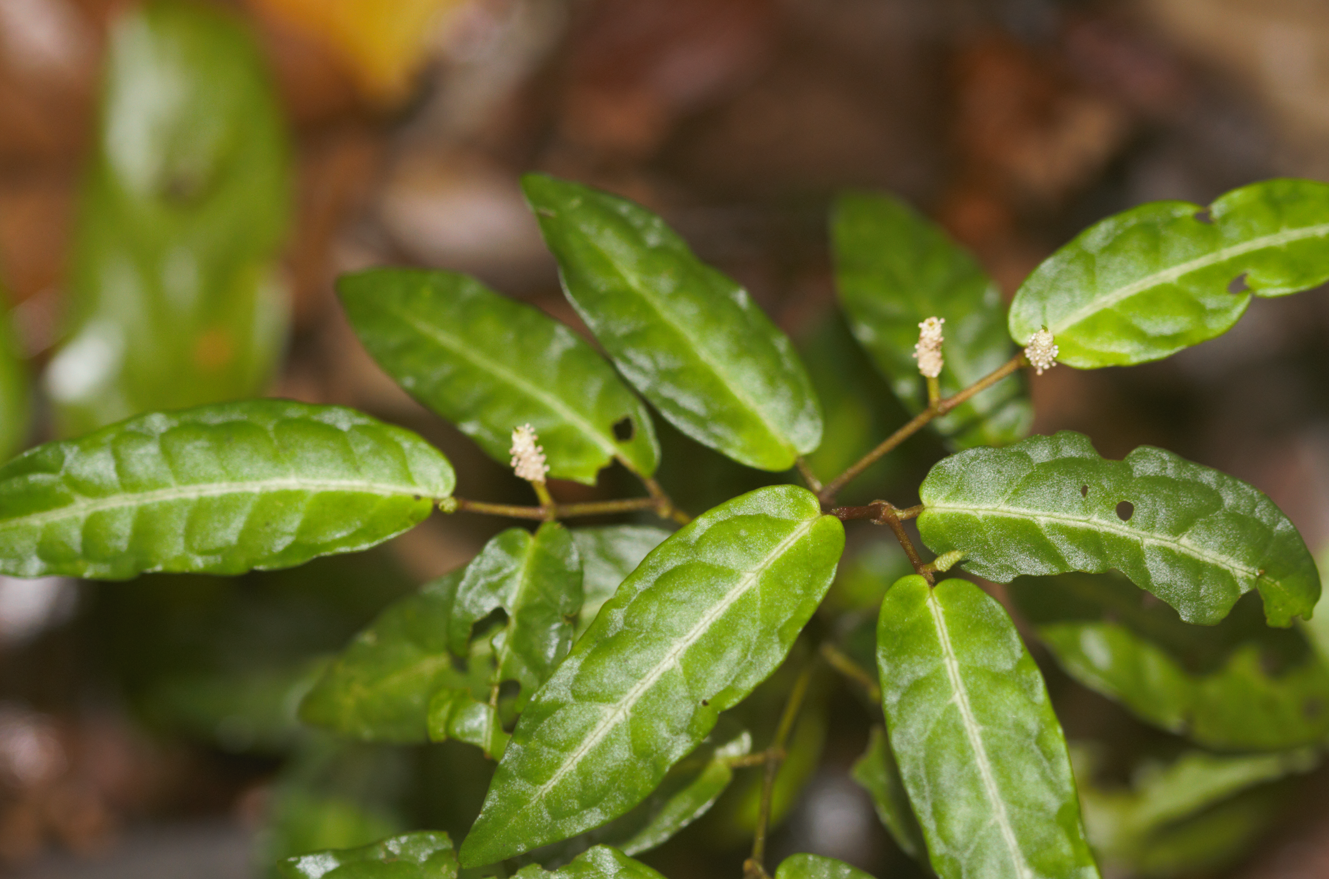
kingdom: Plantae
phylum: Tracheophyta
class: Magnoliopsida
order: Piperales
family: Piperaceae
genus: Piper
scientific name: Piper consanguineum
